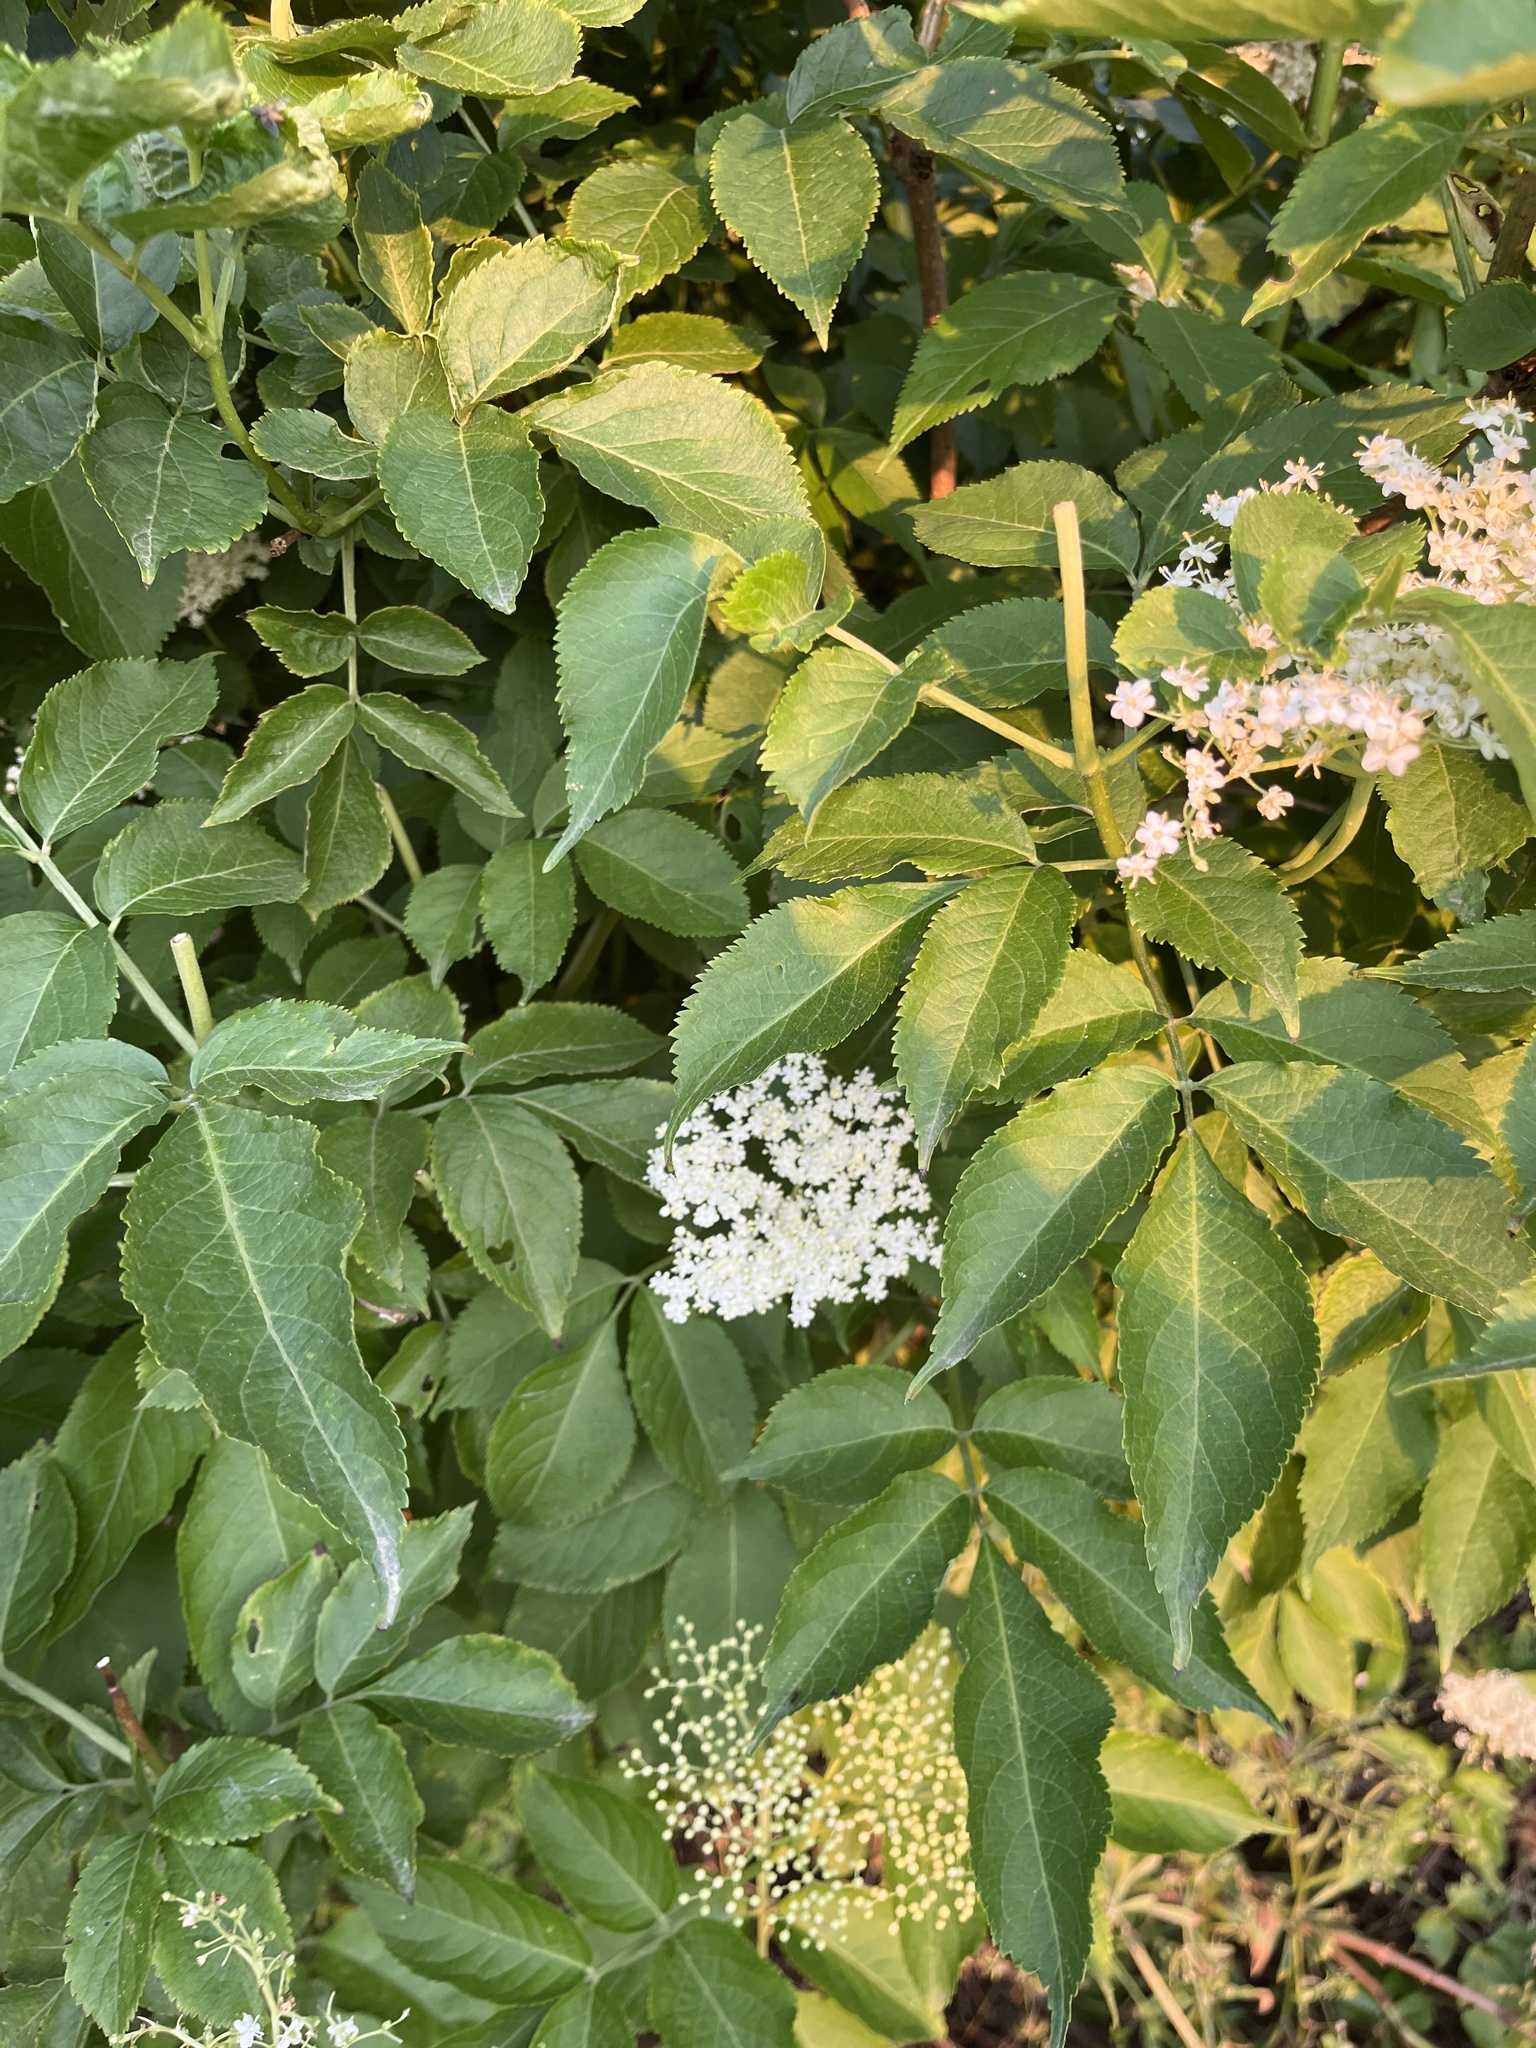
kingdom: Plantae
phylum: Tracheophyta
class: Magnoliopsida
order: Dipsacales
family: Viburnaceae
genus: Sambucus
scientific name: Sambucus nigra
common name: Elder
